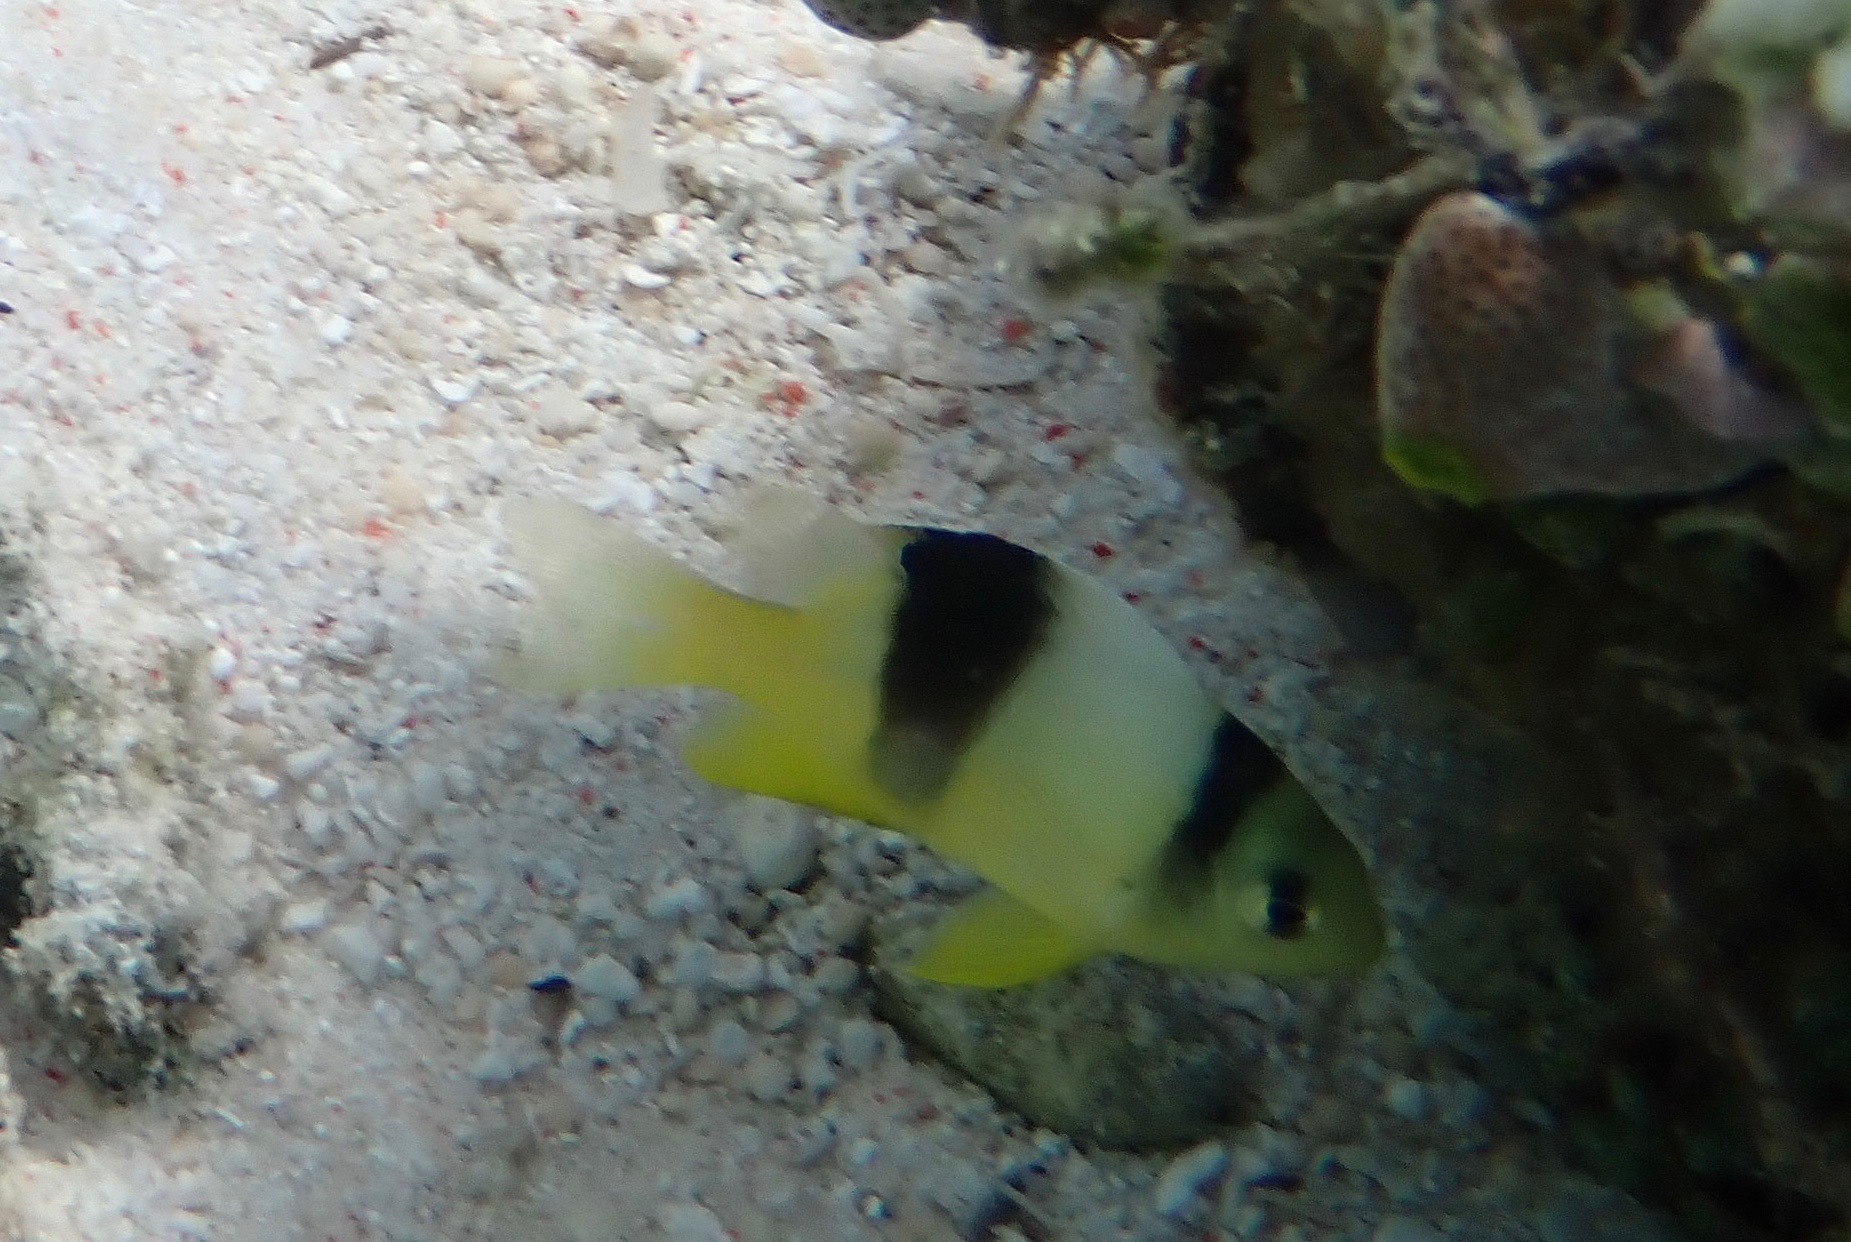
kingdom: Animalia
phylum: Chordata
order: Perciformes
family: Pomacentridae
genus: Dischistodus
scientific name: Dischistodus perspicillatus
